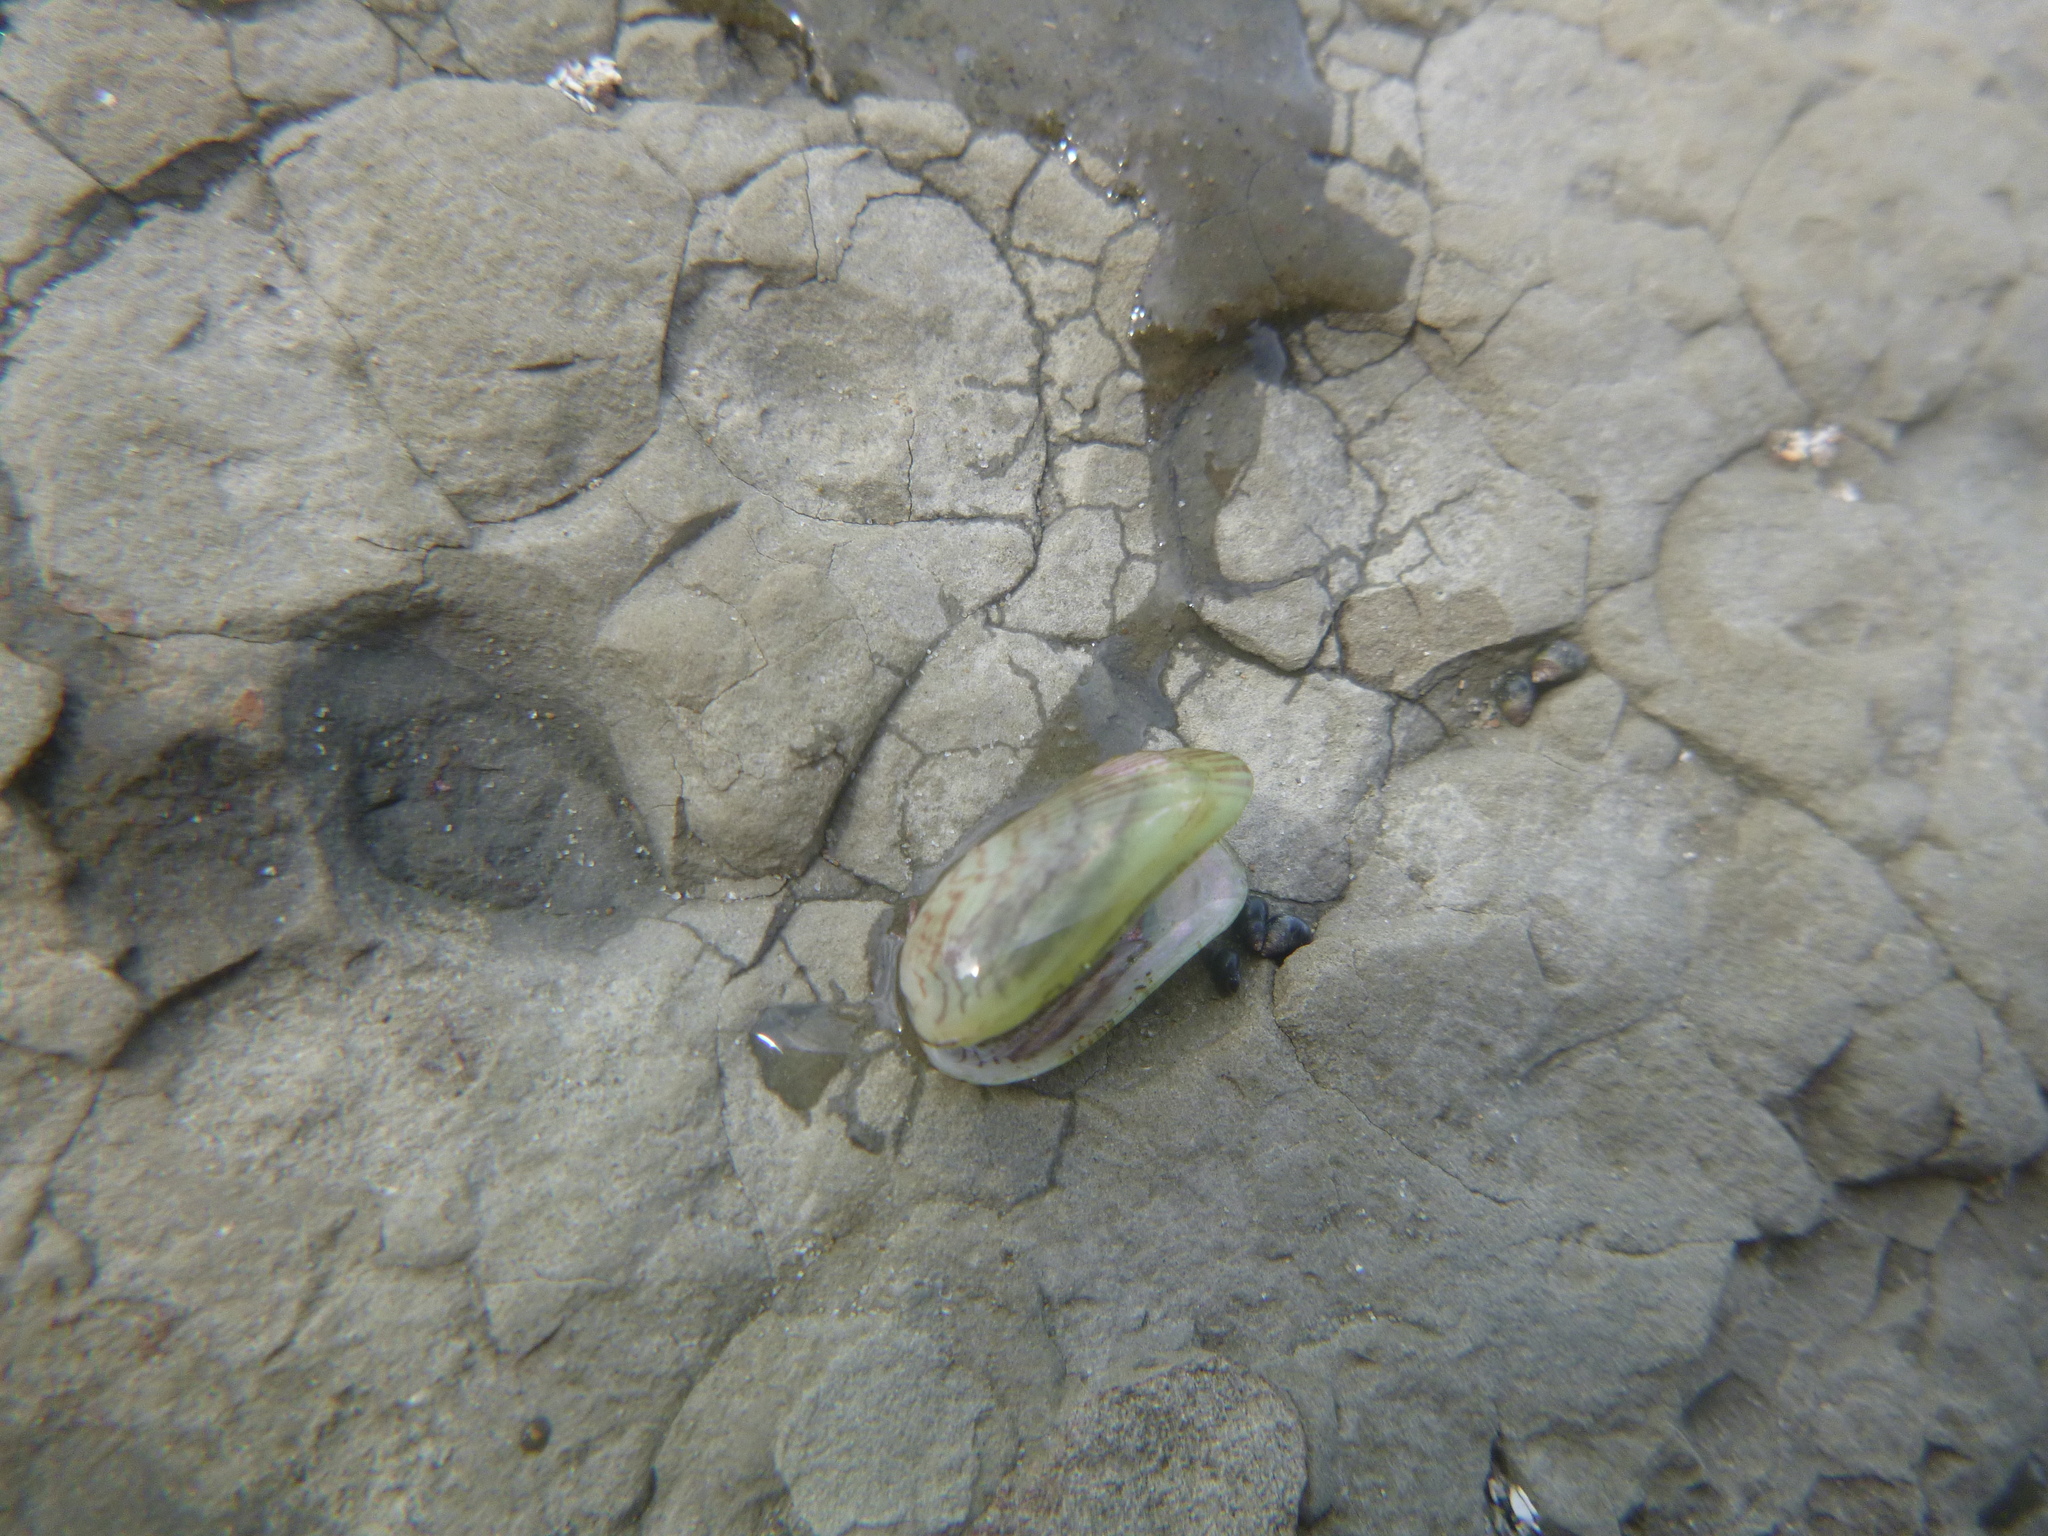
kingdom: Animalia
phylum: Mollusca
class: Bivalvia
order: Mytilida
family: Mytilidae
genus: Arcuatula
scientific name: Arcuatula senhousia
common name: Asian mussel
